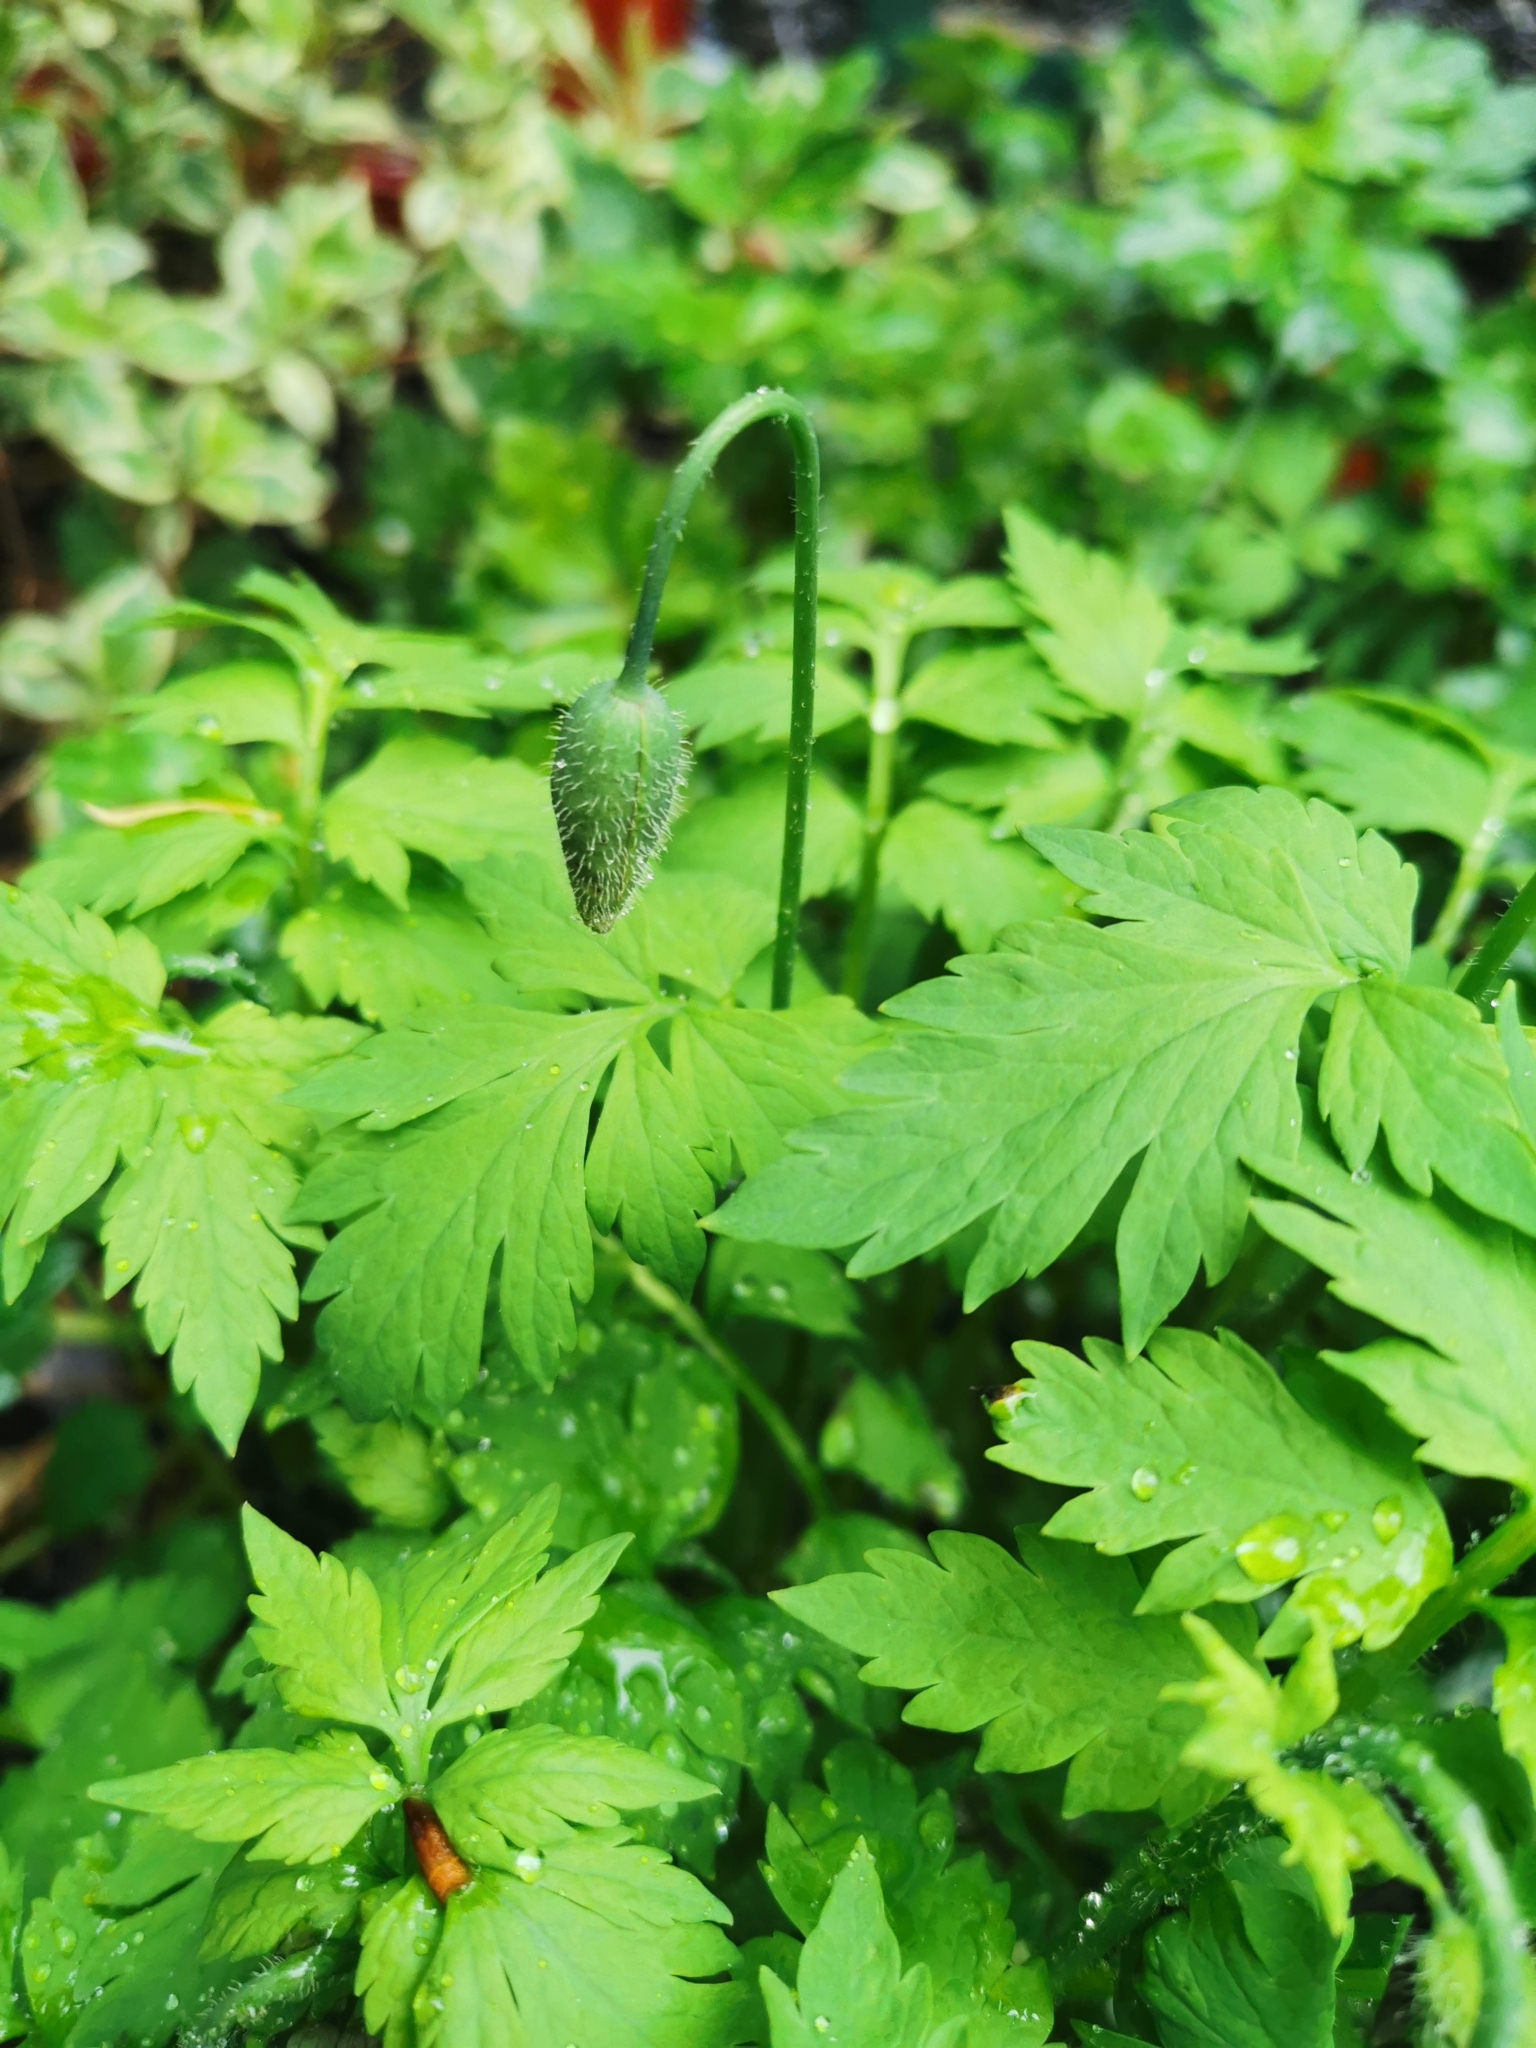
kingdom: Plantae
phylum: Tracheophyta
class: Magnoliopsida
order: Ranunculales
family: Papaveraceae
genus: Papaver
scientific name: Papaver cambricum
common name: Poppy
